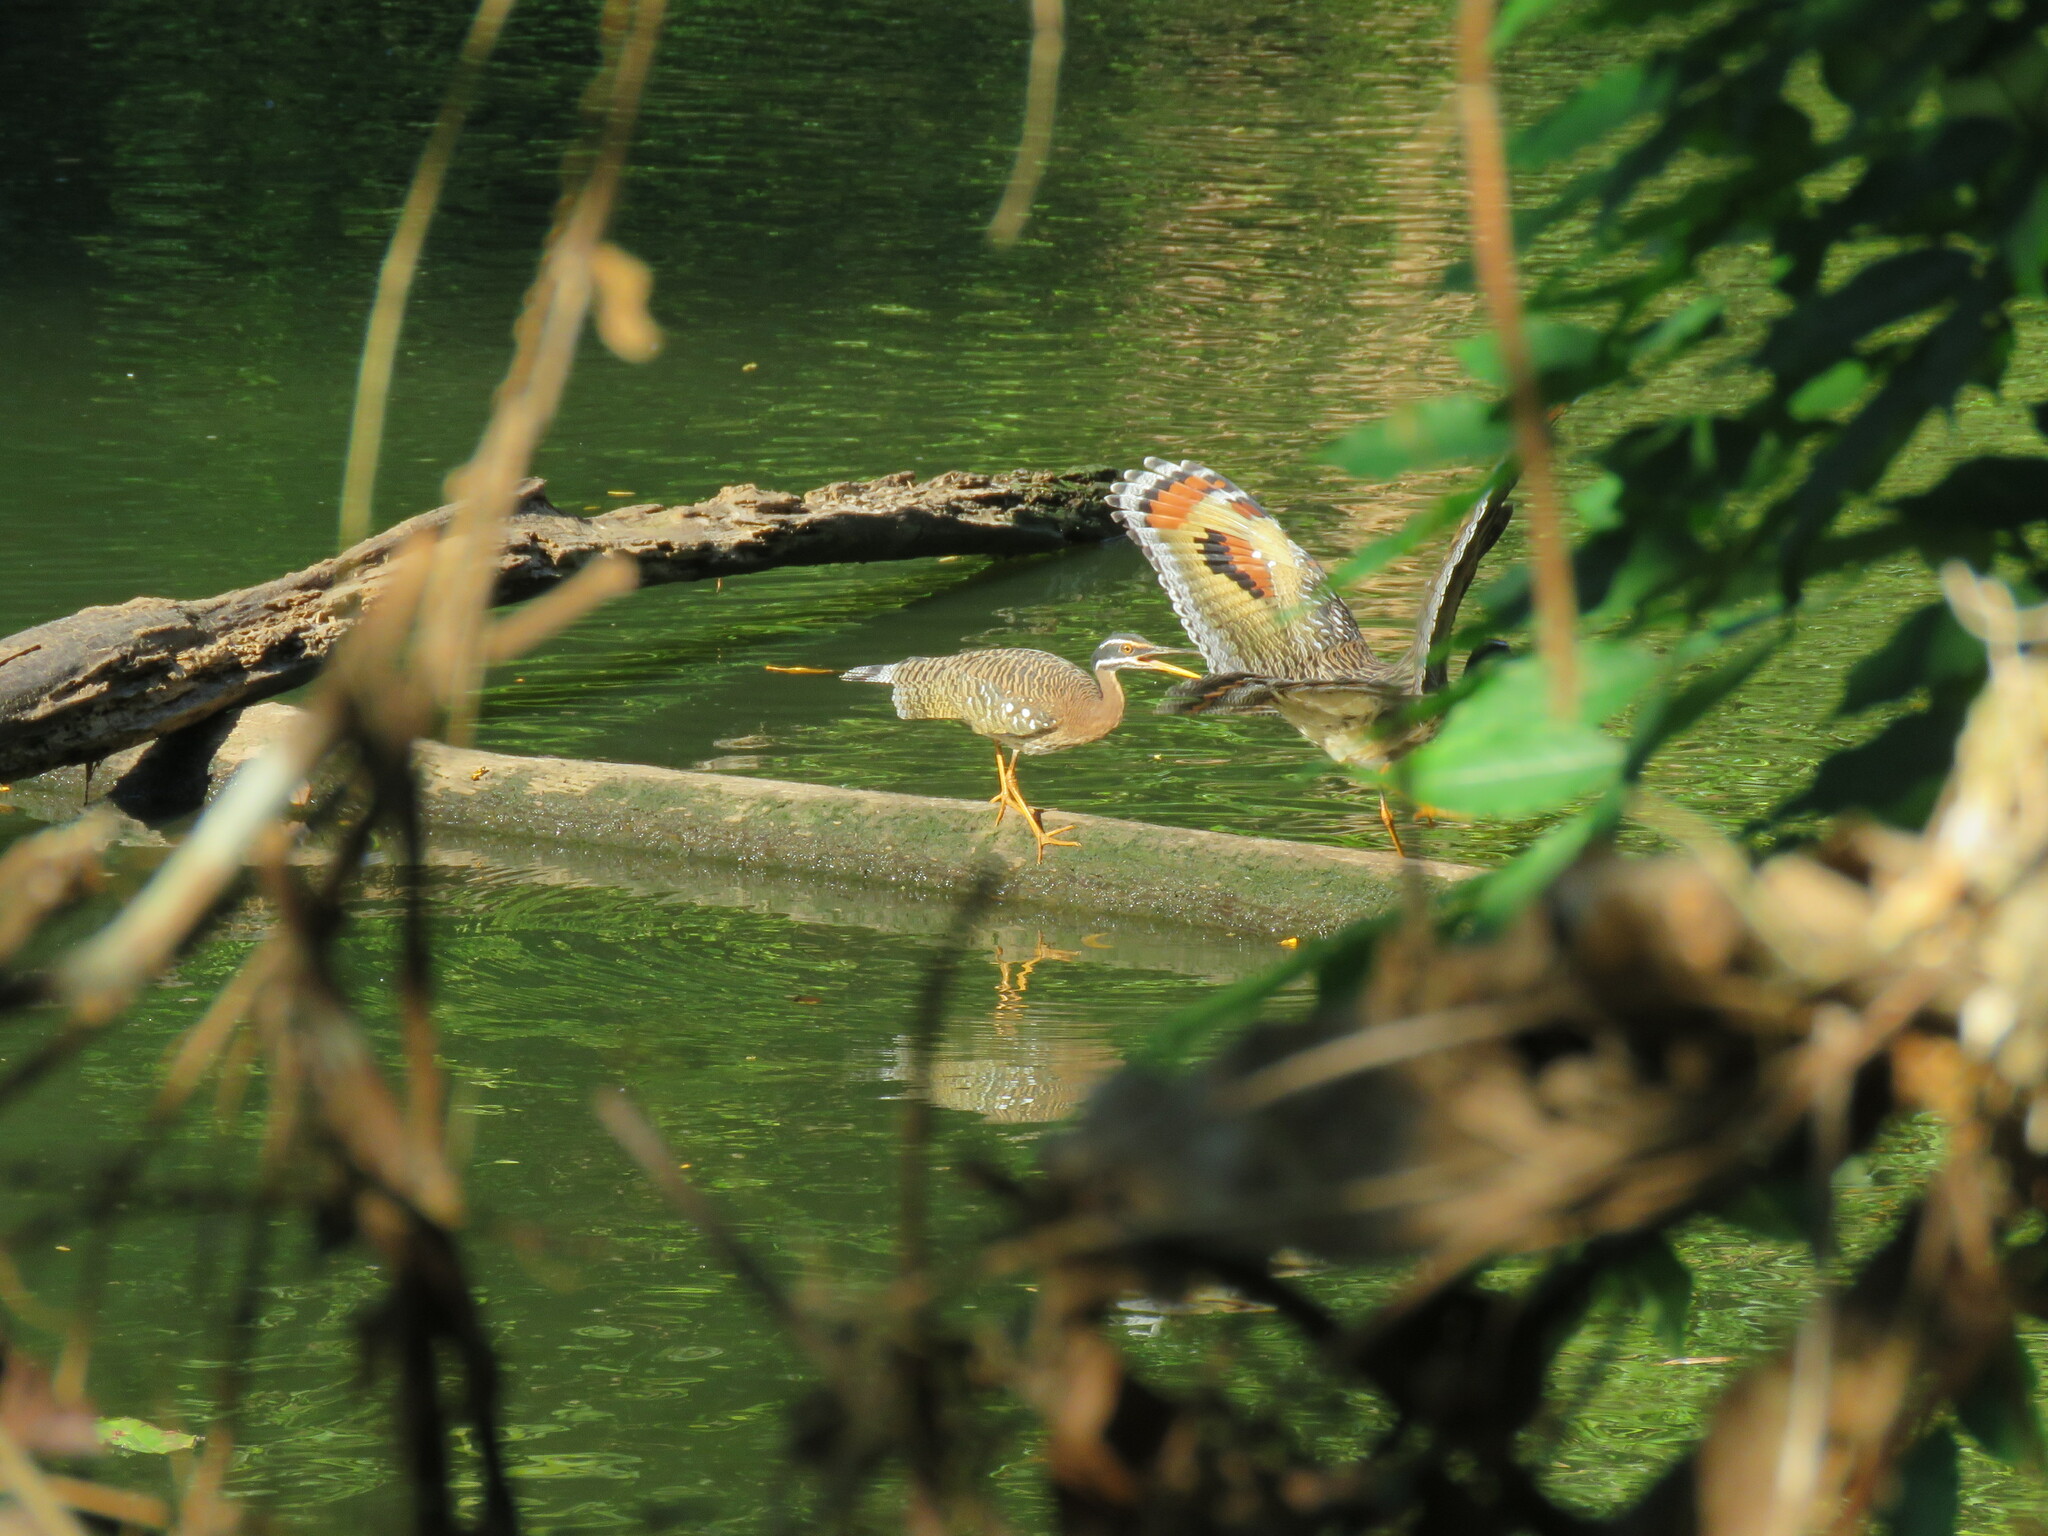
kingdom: Animalia
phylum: Chordata
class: Aves
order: Eurypygiformes
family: Eurypygidae
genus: Eurypyga
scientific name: Eurypyga helias
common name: Sunbittern
